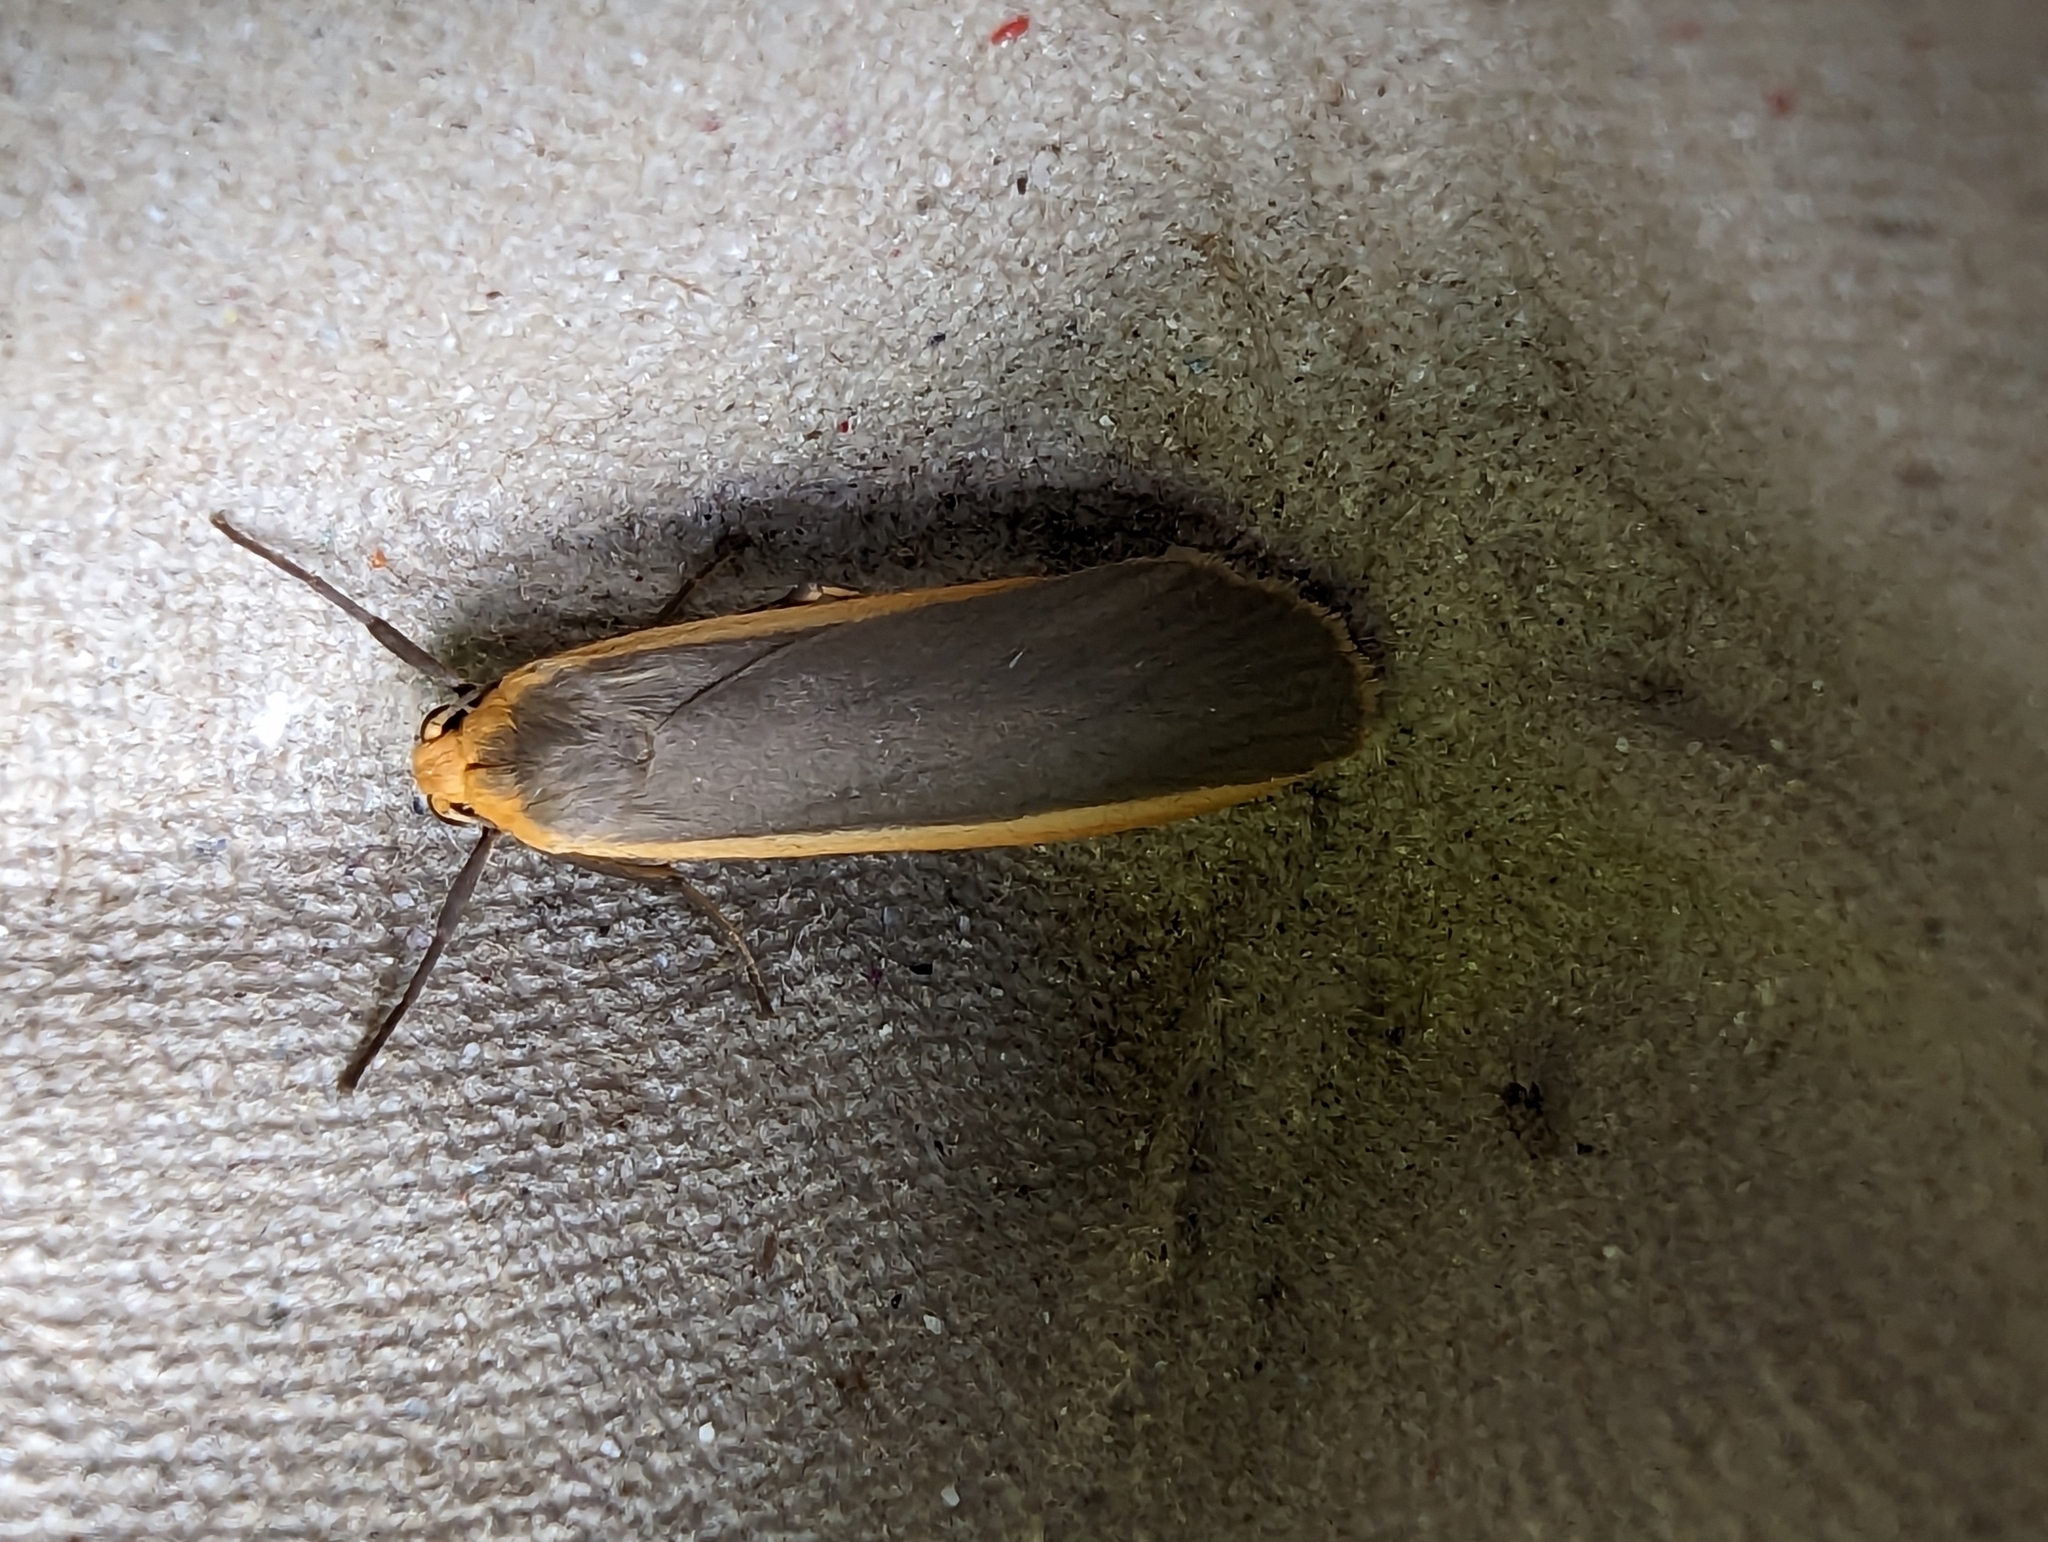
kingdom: Animalia
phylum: Arthropoda
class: Insecta
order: Lepidoptera
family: Erebidae
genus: Nyea
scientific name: Nyea lurideola
